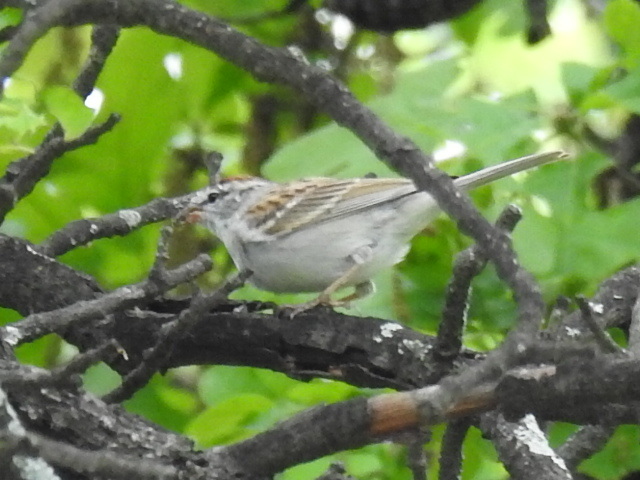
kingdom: Animalia
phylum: Chordata
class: Aves
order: Passeriformes
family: Passerellidae
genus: Spizella
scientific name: Spizella passerina
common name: Chipping sparrow
